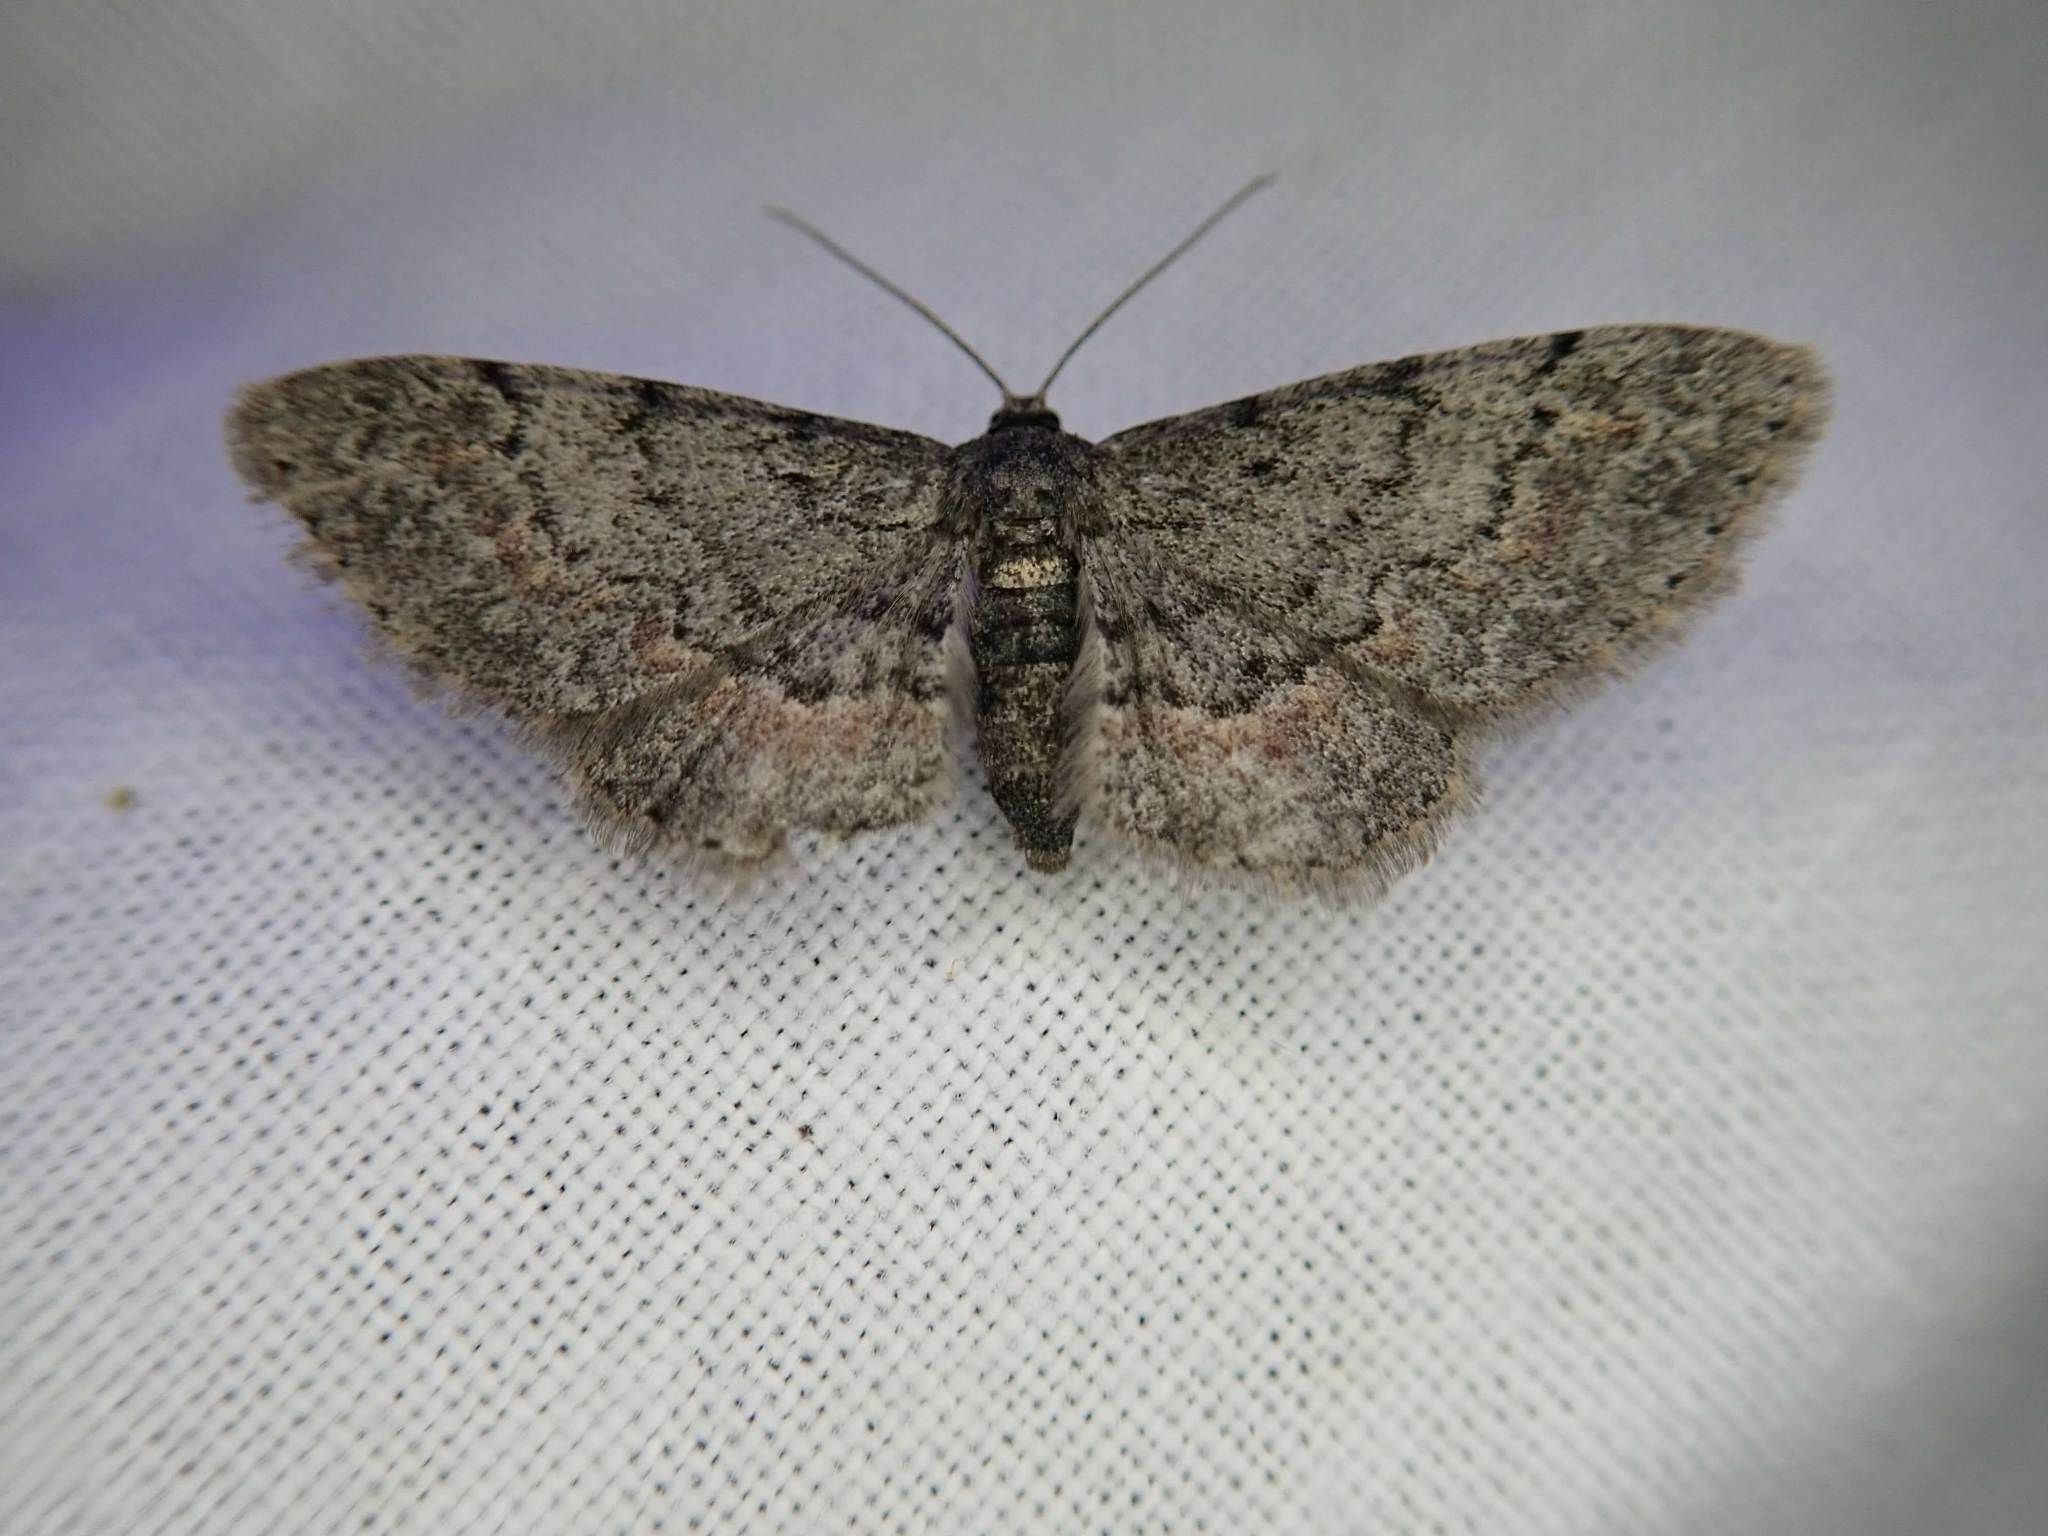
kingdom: Animalia
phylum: Arthropoda
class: Insecta
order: Lepidoptera
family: Geometridae
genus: Glenoides
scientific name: Glenoides texanaria
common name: Texas gray
